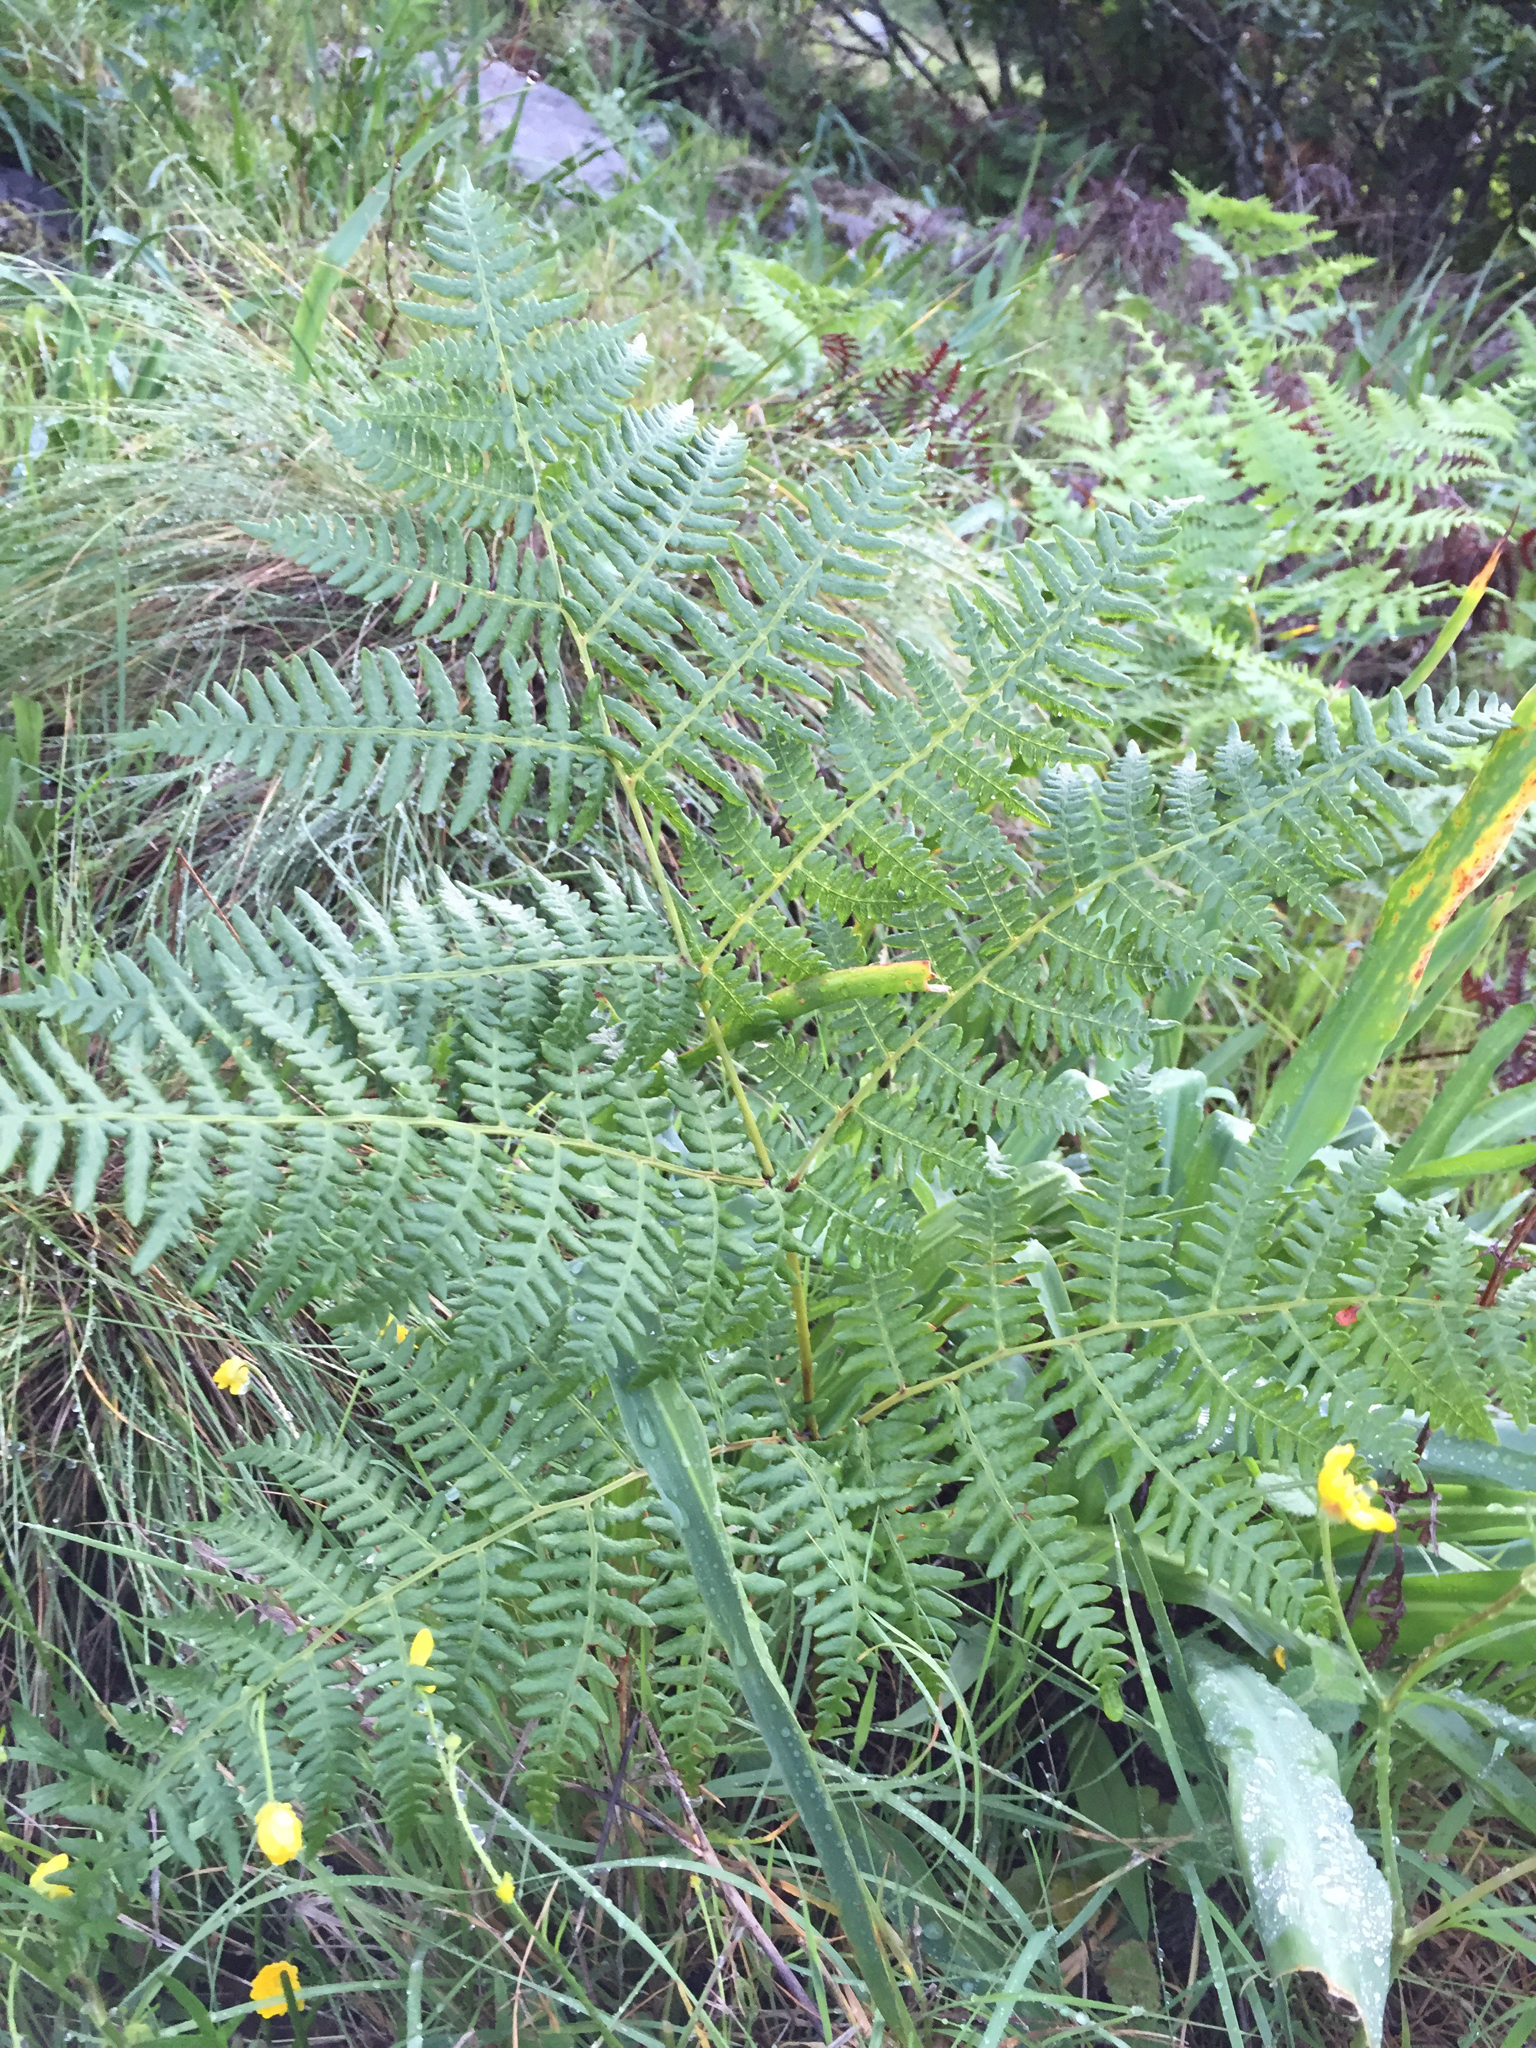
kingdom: Plantae
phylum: Tracheophyta
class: Polypodiopsida
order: Polypodiales
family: Dennstaedtiaceae
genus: Pteridium
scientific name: Pteridium aquilinum
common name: Bracken
